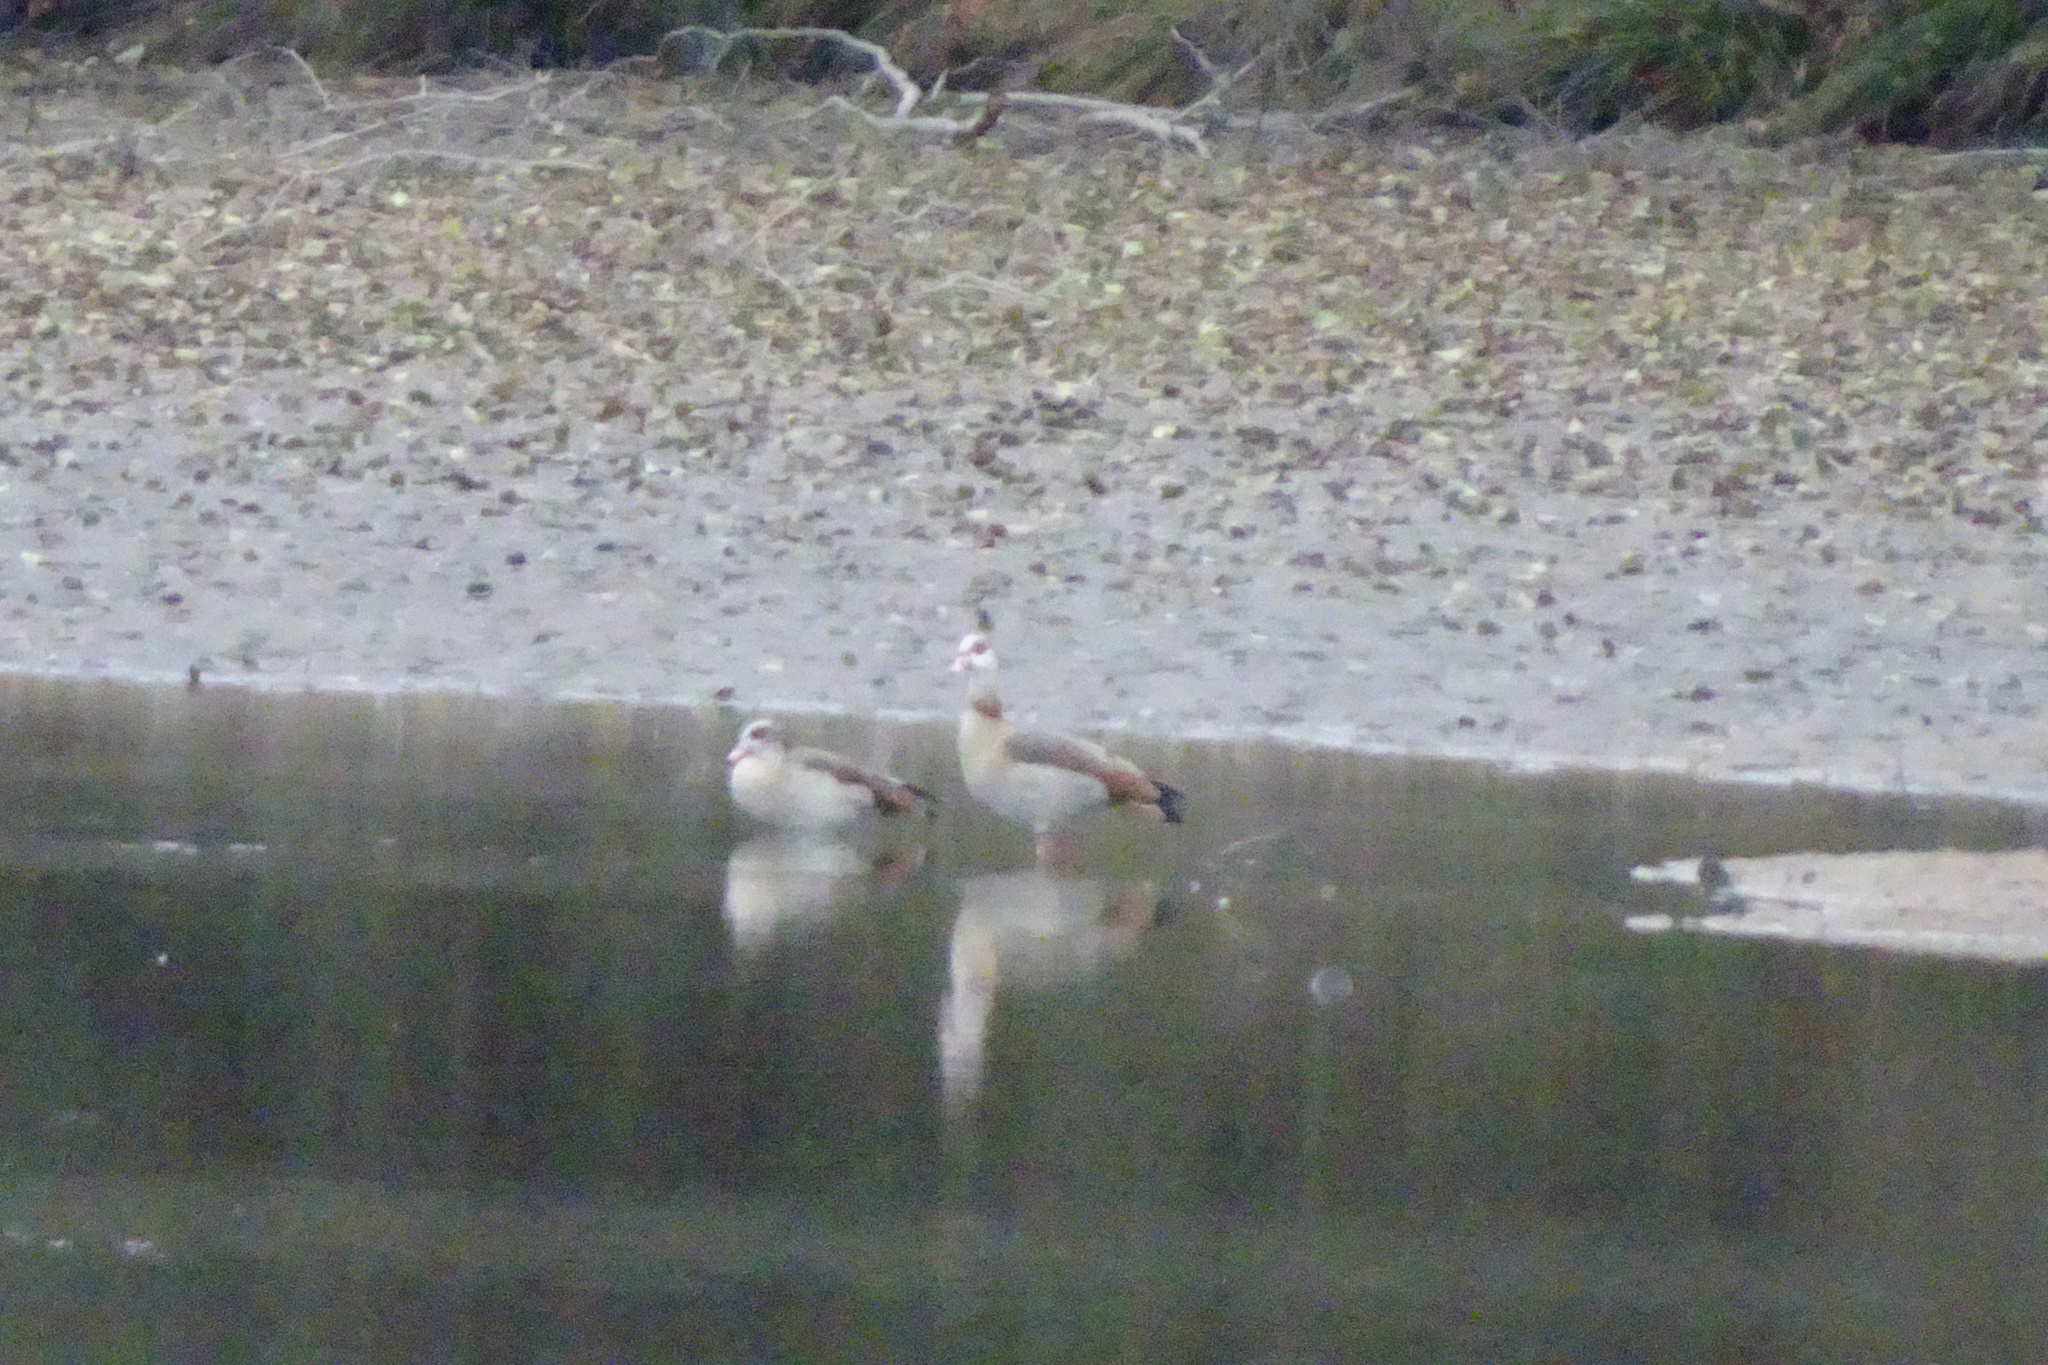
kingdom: Animalia
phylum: Chordata
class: Aves
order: Anseriformes
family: Anatidae
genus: Alopochen
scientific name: Alopochen aegyptiaca
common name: Egyptian goose
